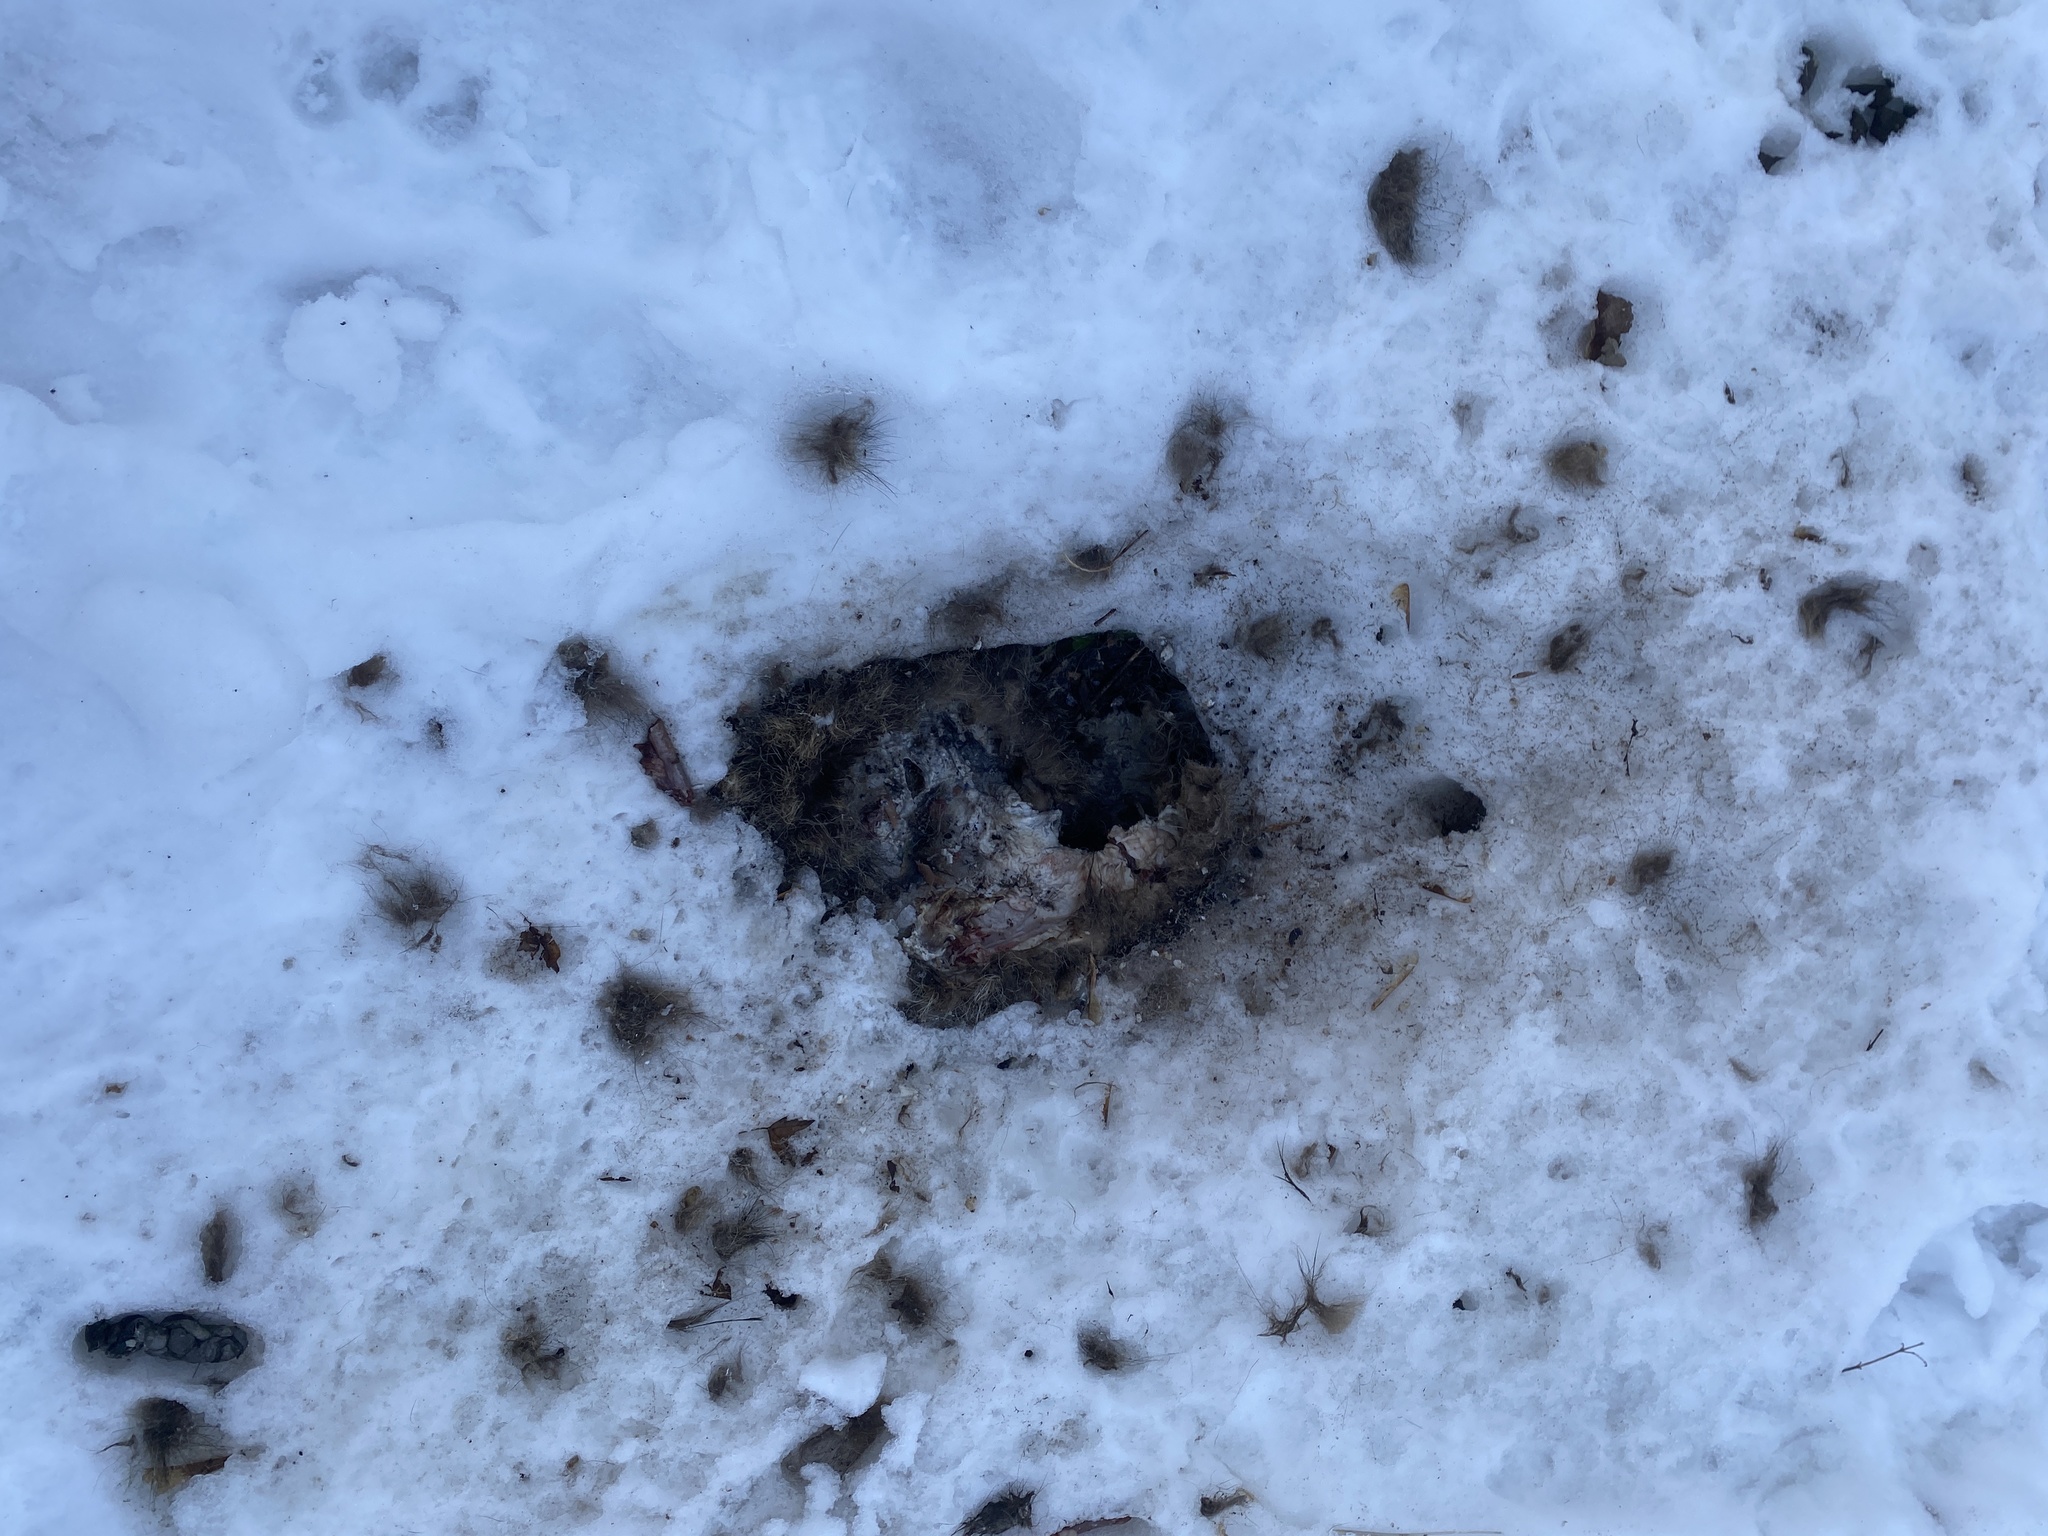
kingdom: Animalia
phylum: Chordata
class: Mammalia
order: Carnivora
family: Canidae
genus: Canis
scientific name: Canis latrans
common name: Coyote
